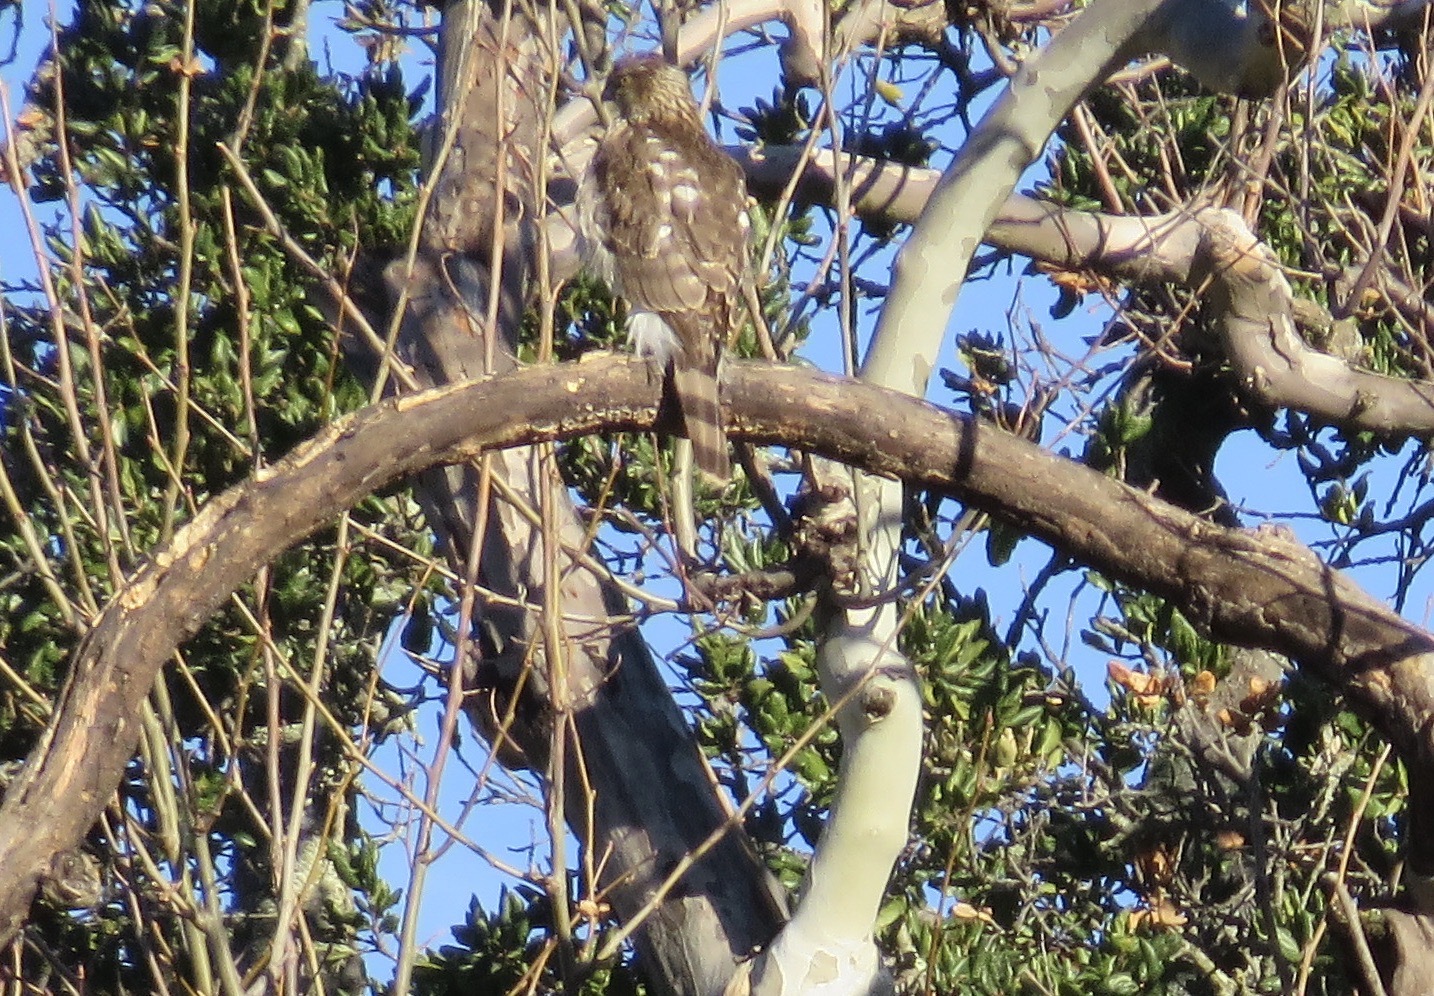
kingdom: Animalia
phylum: Chordata
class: Aves
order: Accipitriformes
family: Accipitridae
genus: Accipiter
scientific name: Accipiter cooperii
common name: Cooper's hawk
